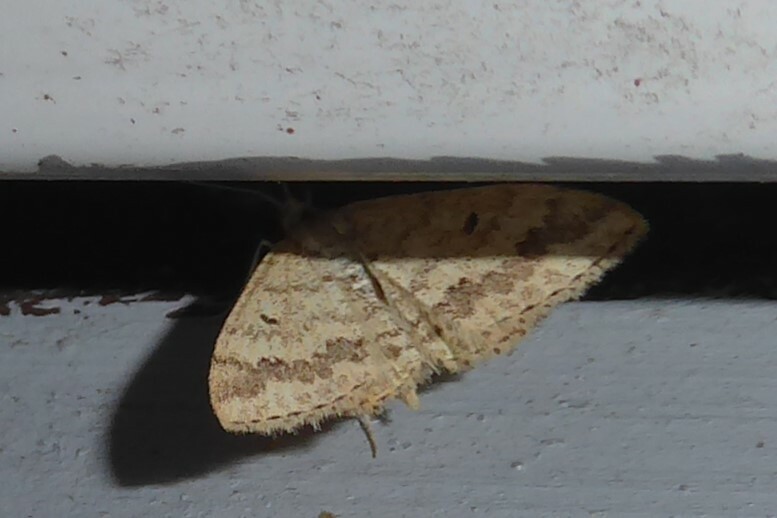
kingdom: Animalia
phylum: Arthropoda
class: Insecta
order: Lepidoptera
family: Geometridae
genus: Scopula
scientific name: Scopula rubraria
